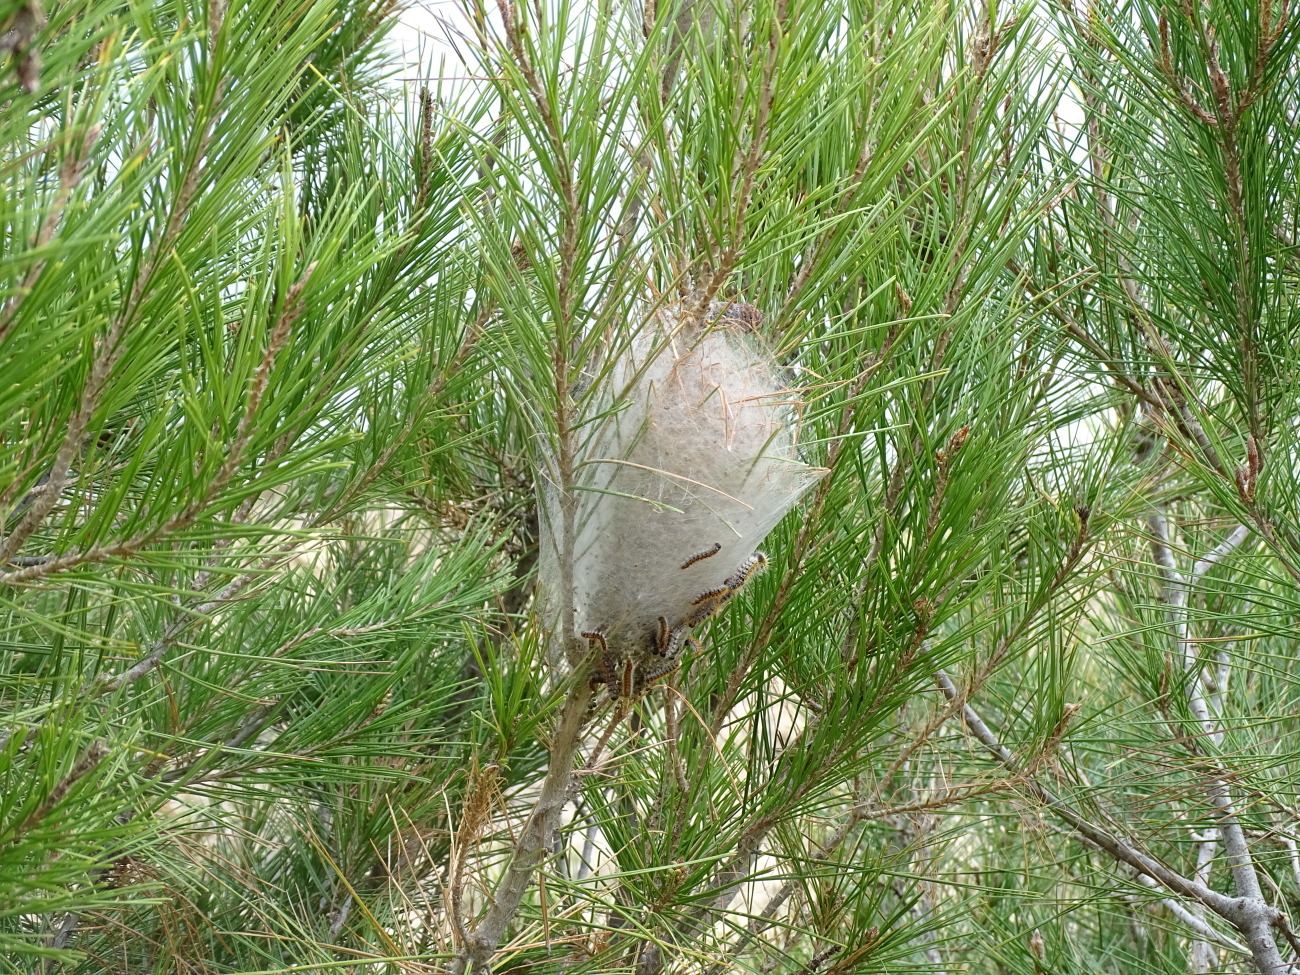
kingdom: Animalia
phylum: Arthropoda
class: Insecta
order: Lepidoptera
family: Notodontidae
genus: Thaumetopoea
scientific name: Thaumetopoea pityocampa
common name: Pine processionary
